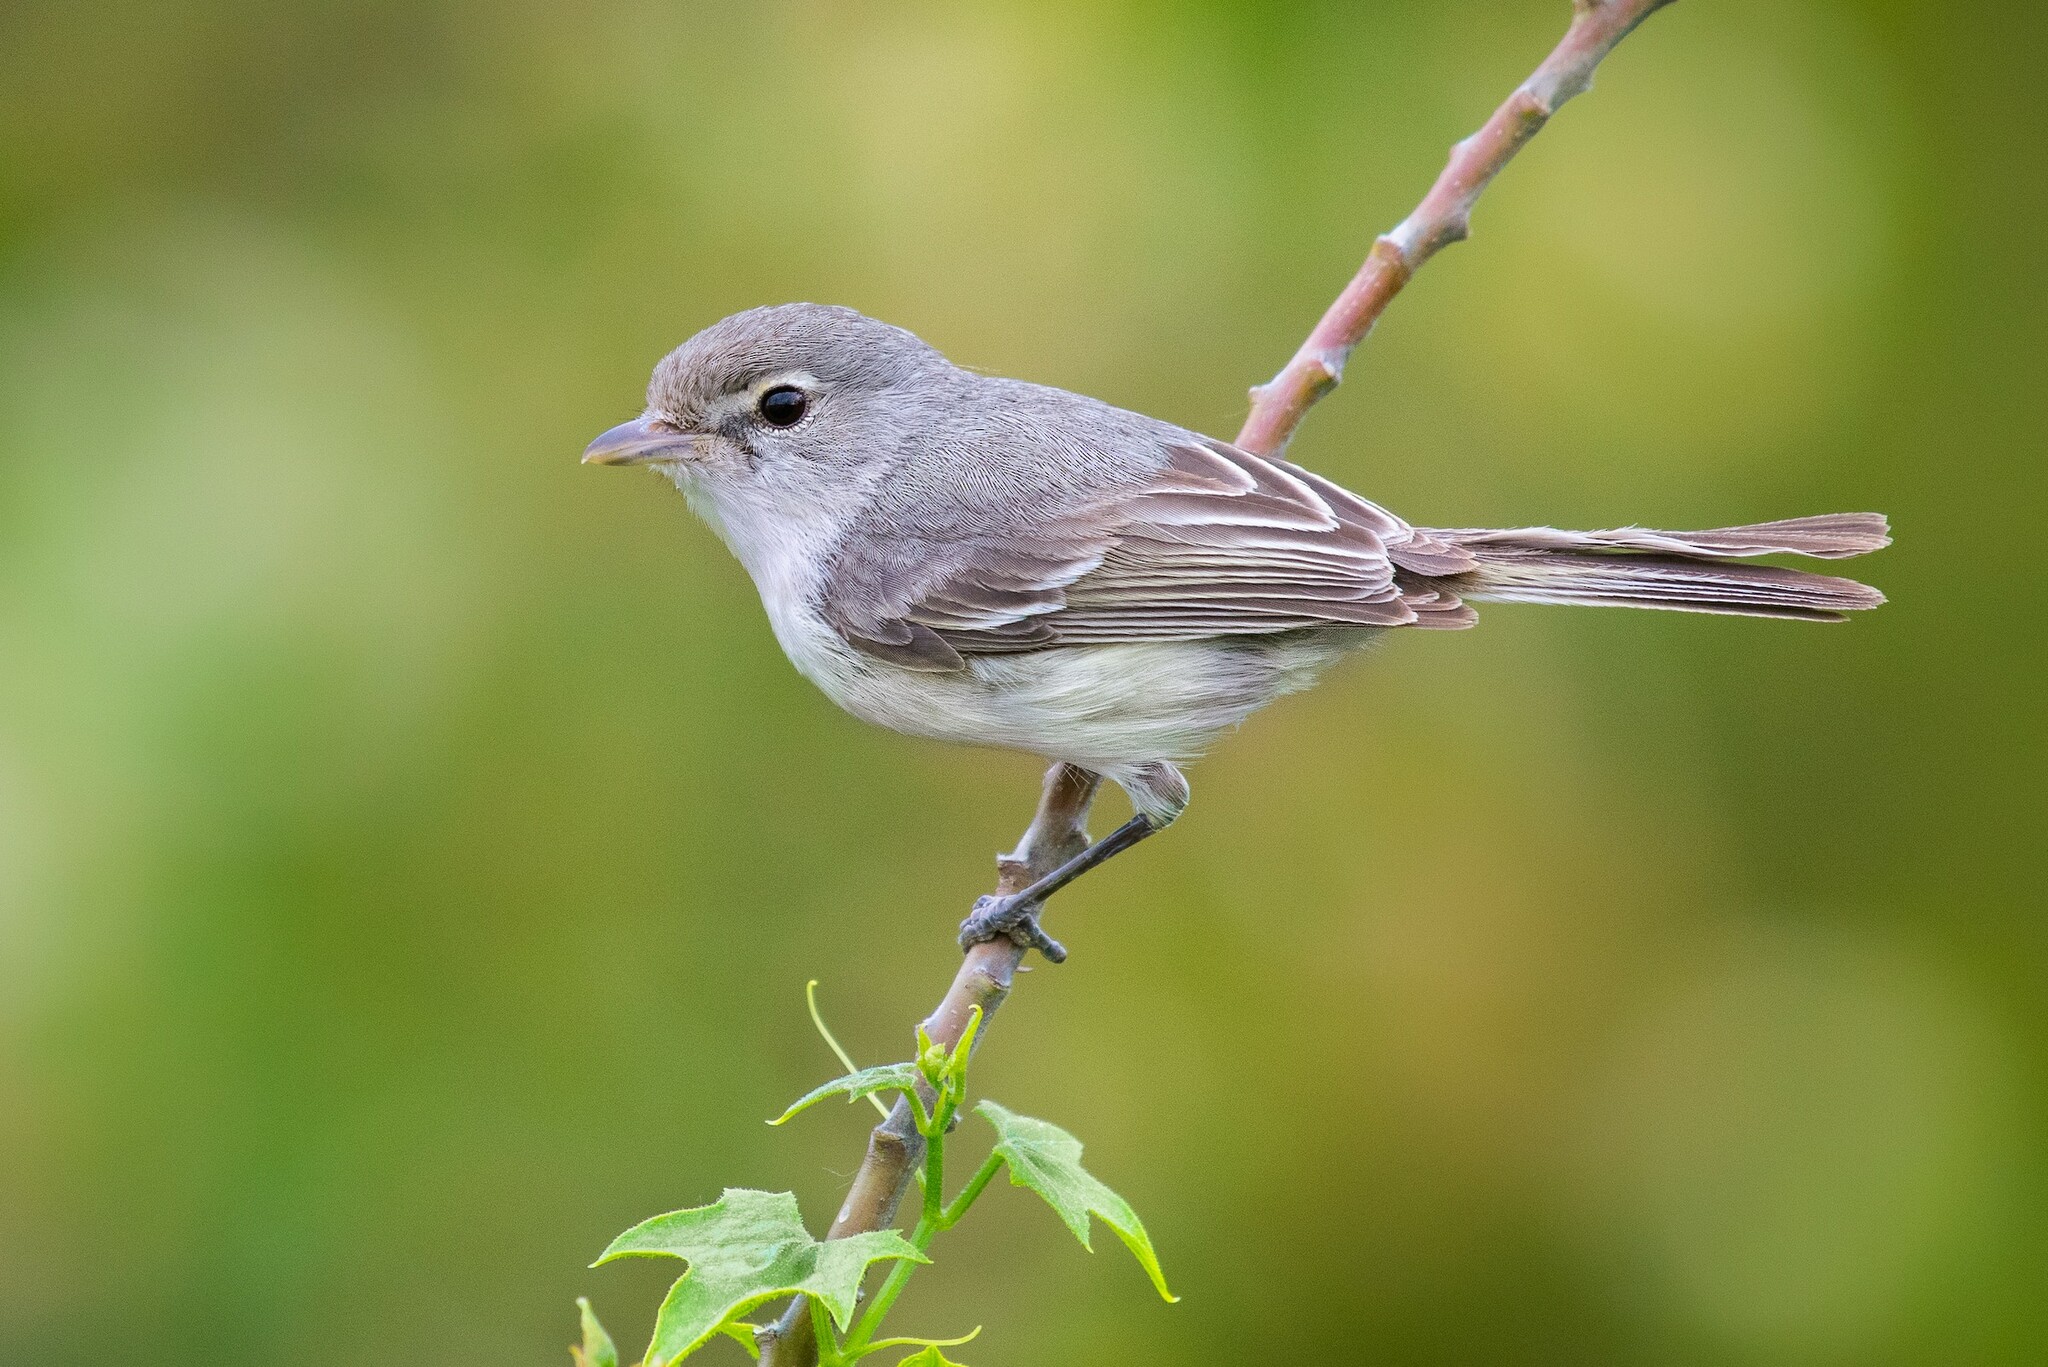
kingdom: Animalia
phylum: Chordata
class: Aves
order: Passeriformes
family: Vireonidae
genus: Vireo
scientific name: Vireo bellii
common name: Bell's vireo
